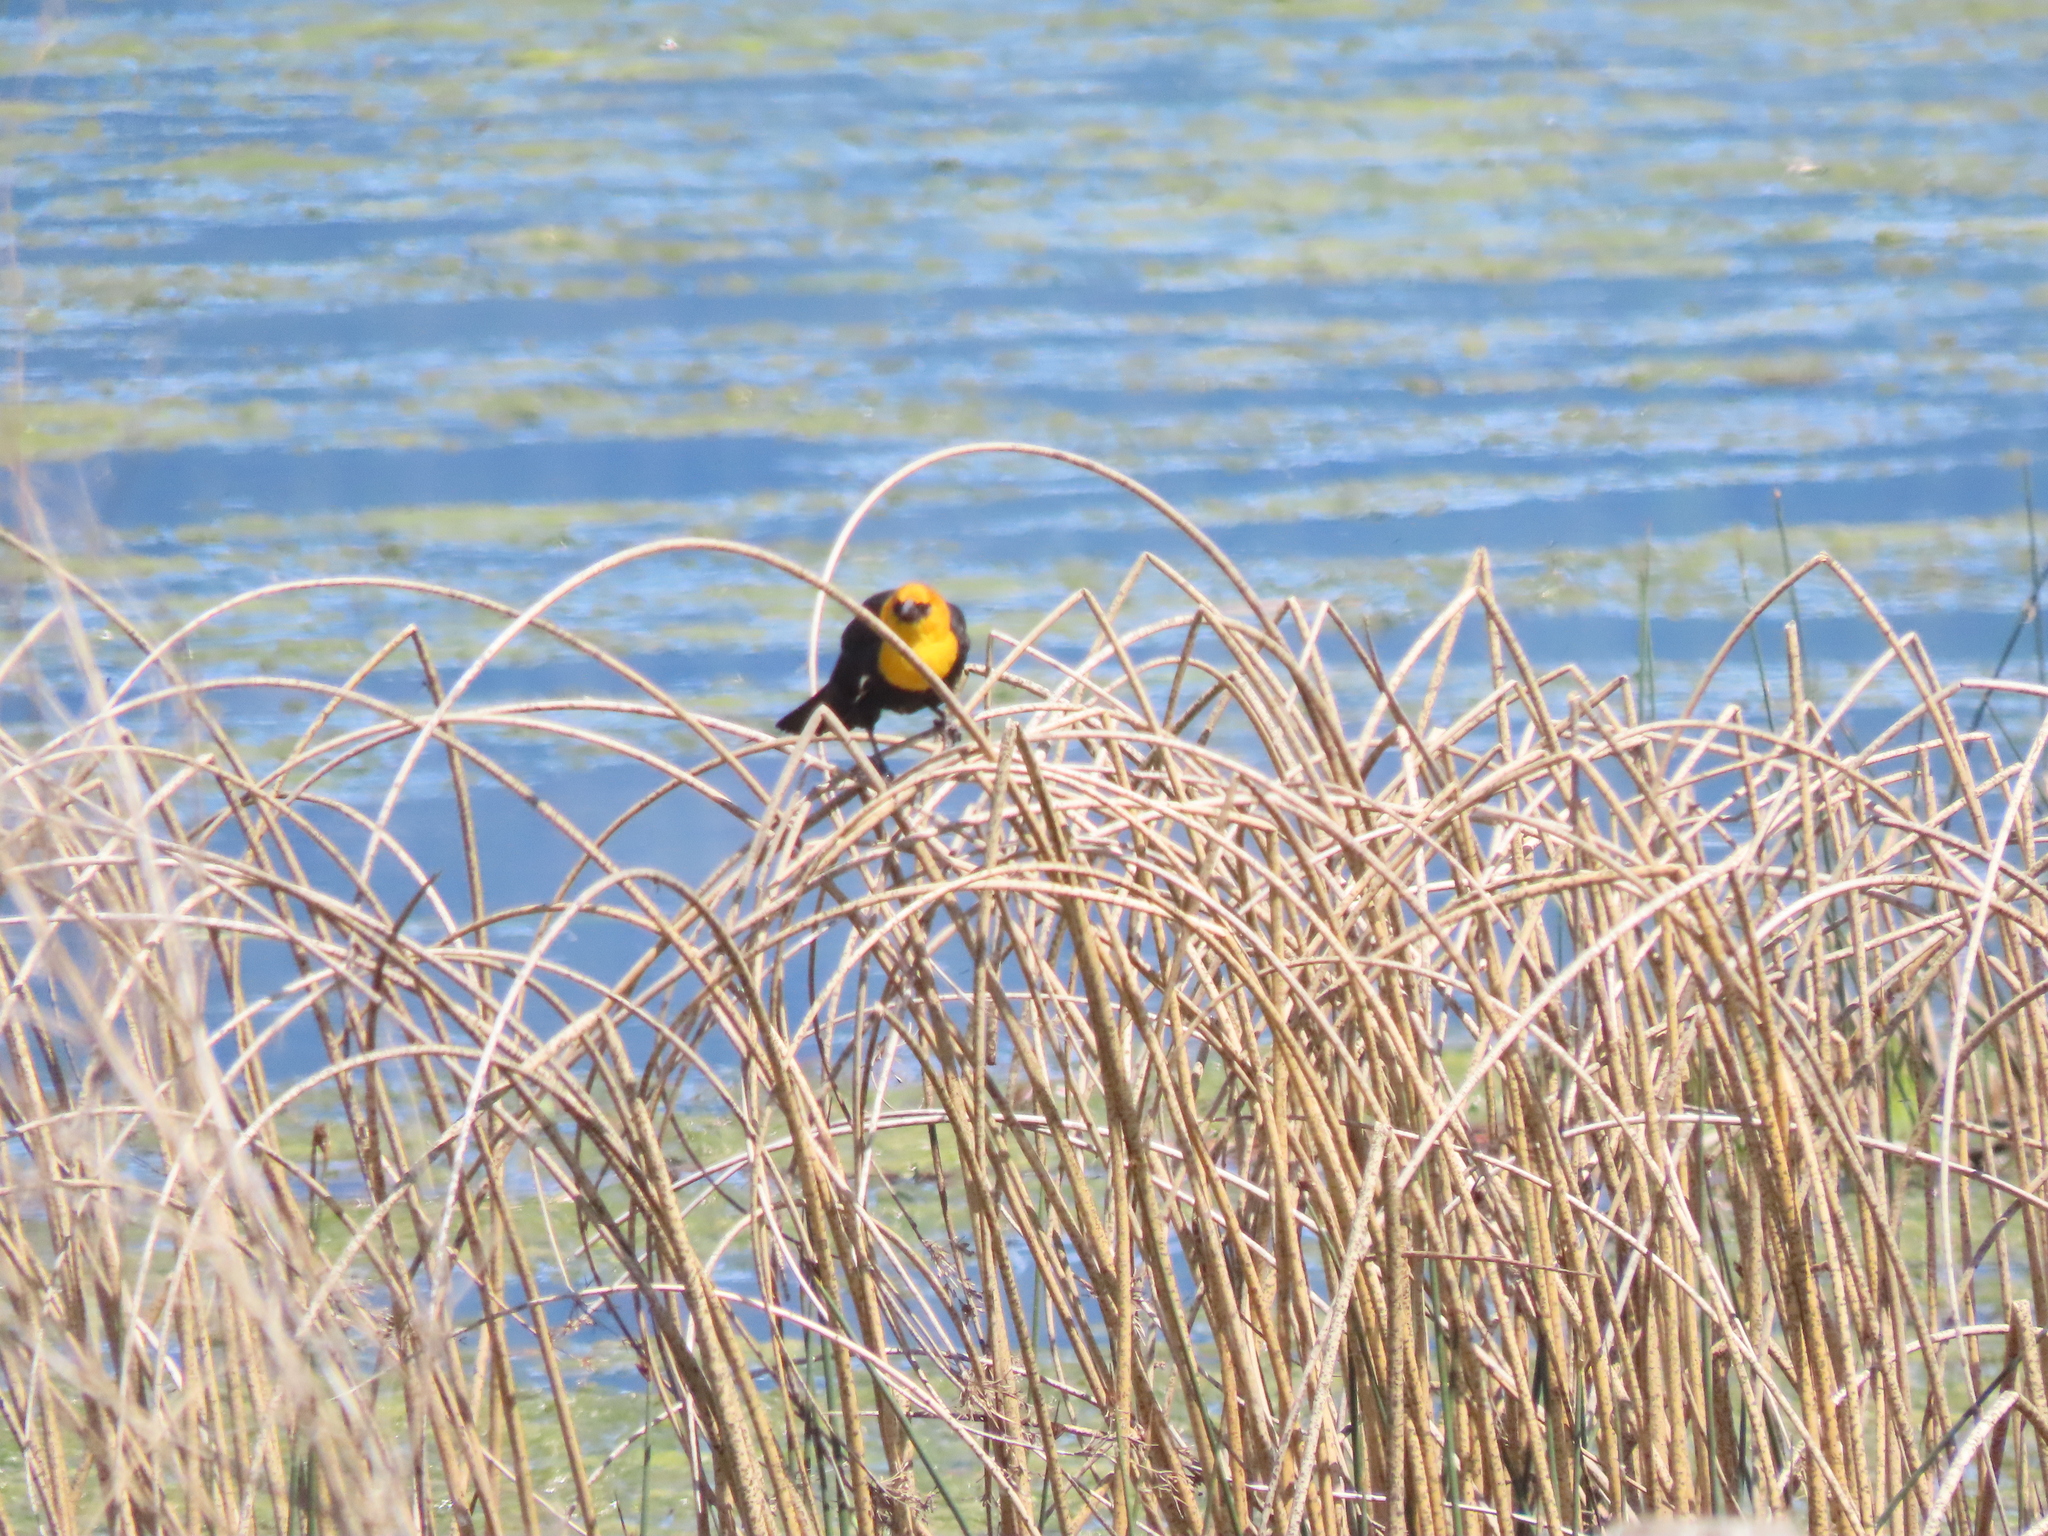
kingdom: Animalia
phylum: Chordata
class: Aves
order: Passeriformes
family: Icteridae
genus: Xanthocephalus
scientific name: Xanthocephalus xanthocephalus
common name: Yellow-headed blackbird
